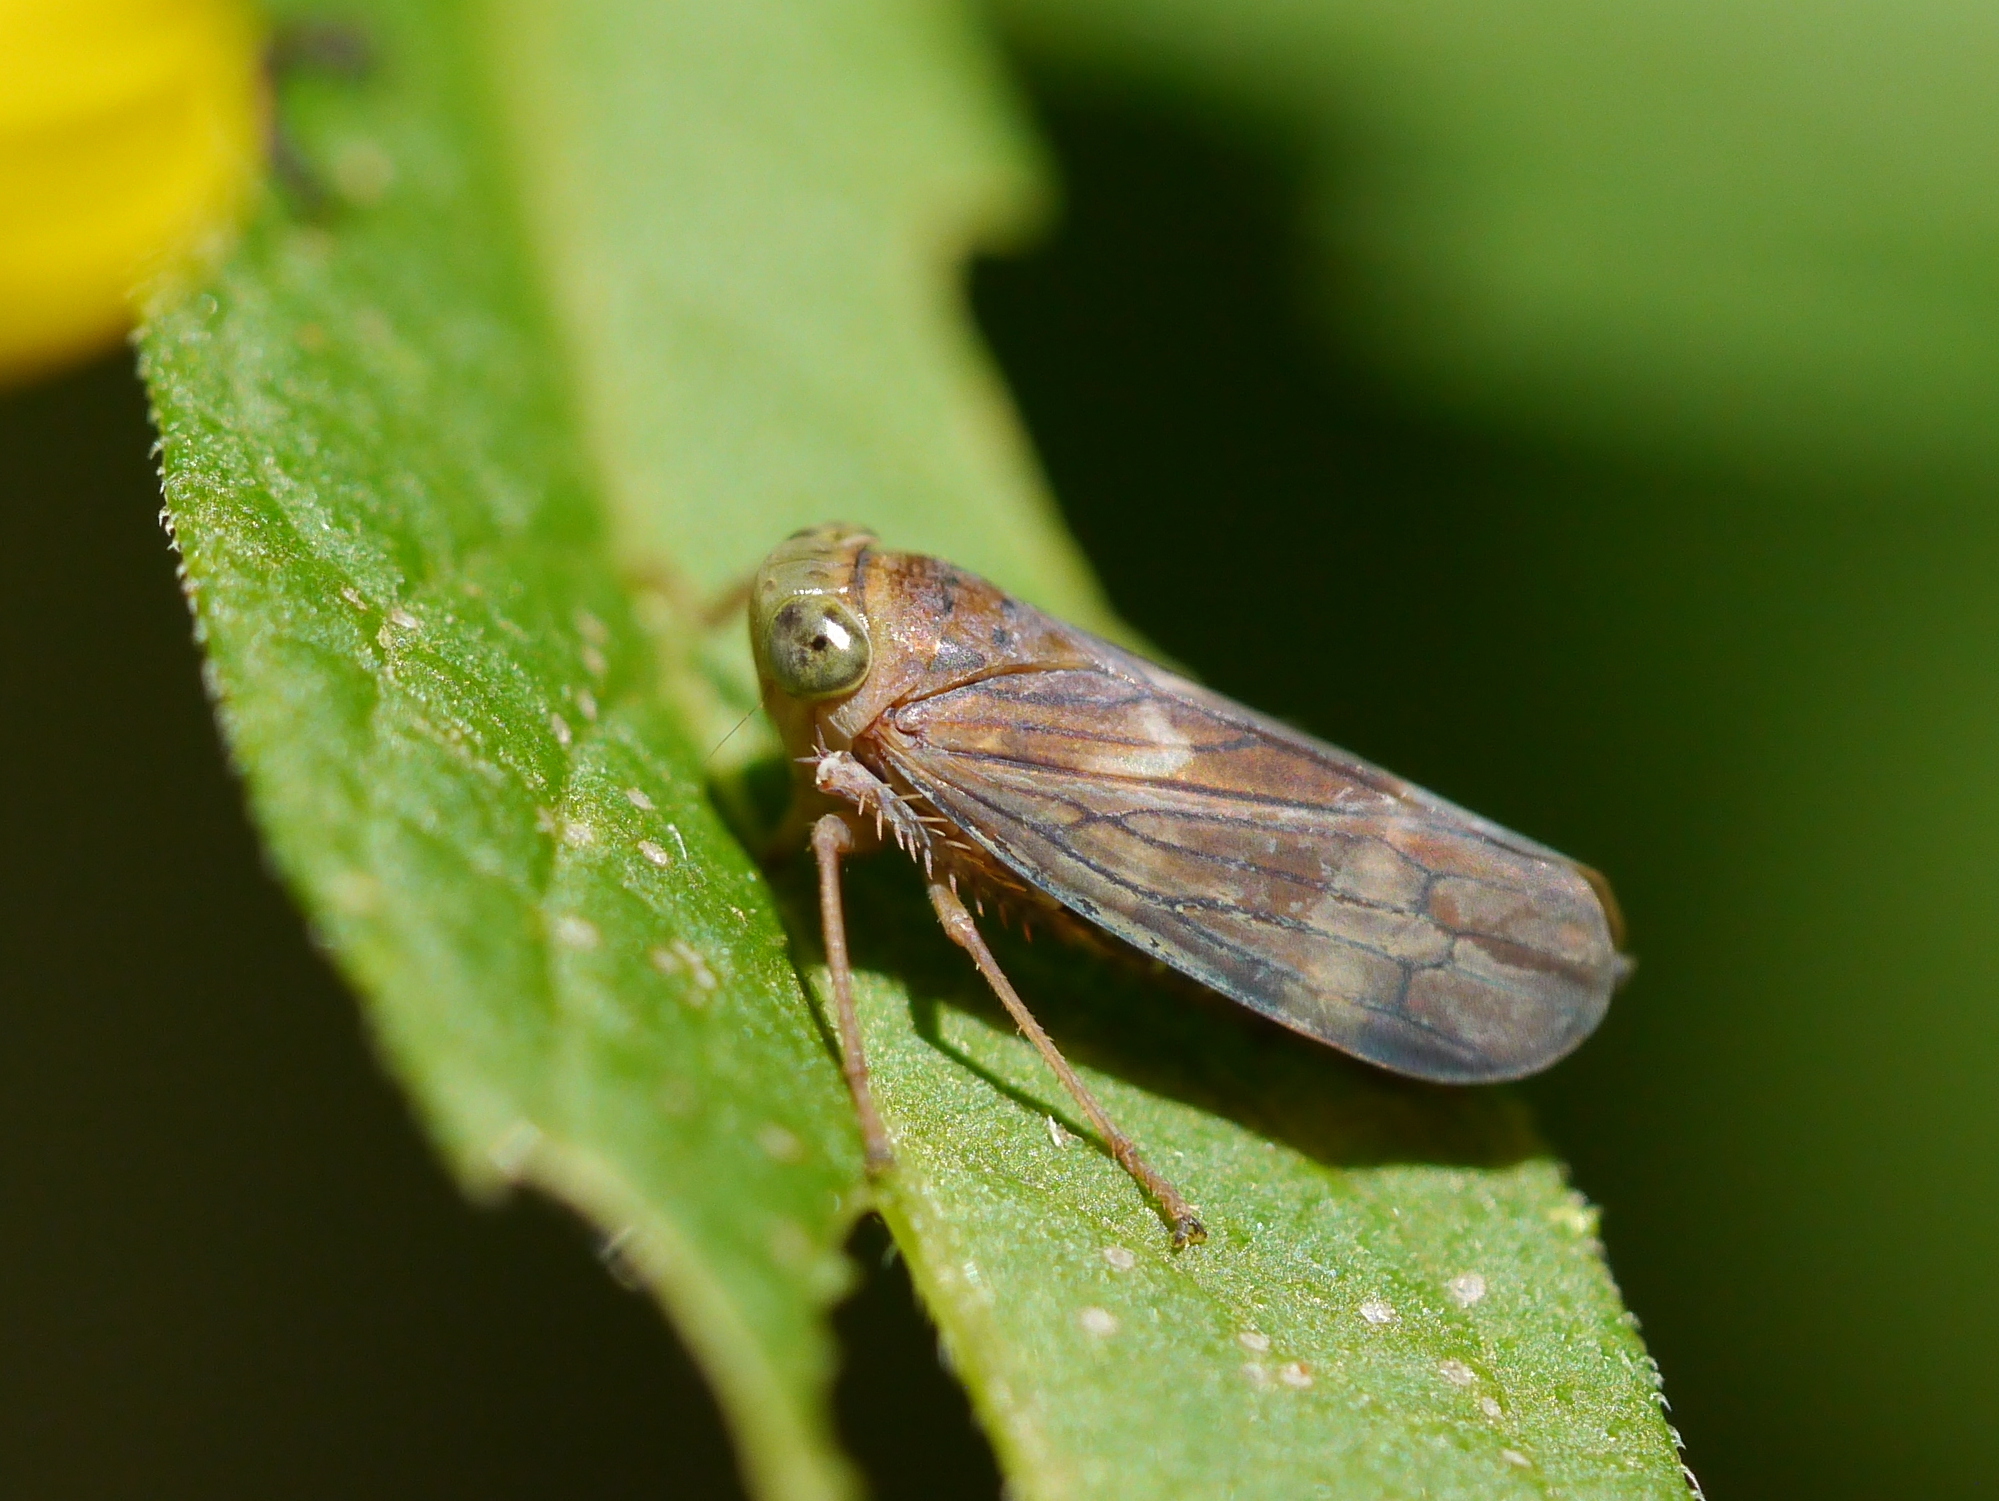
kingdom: Animalia
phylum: Arthropoda
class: Insecta
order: Hemiptera
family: Cicadellidae
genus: Jikradia
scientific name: Jikradia olitoria
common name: Coppery leafhopper
